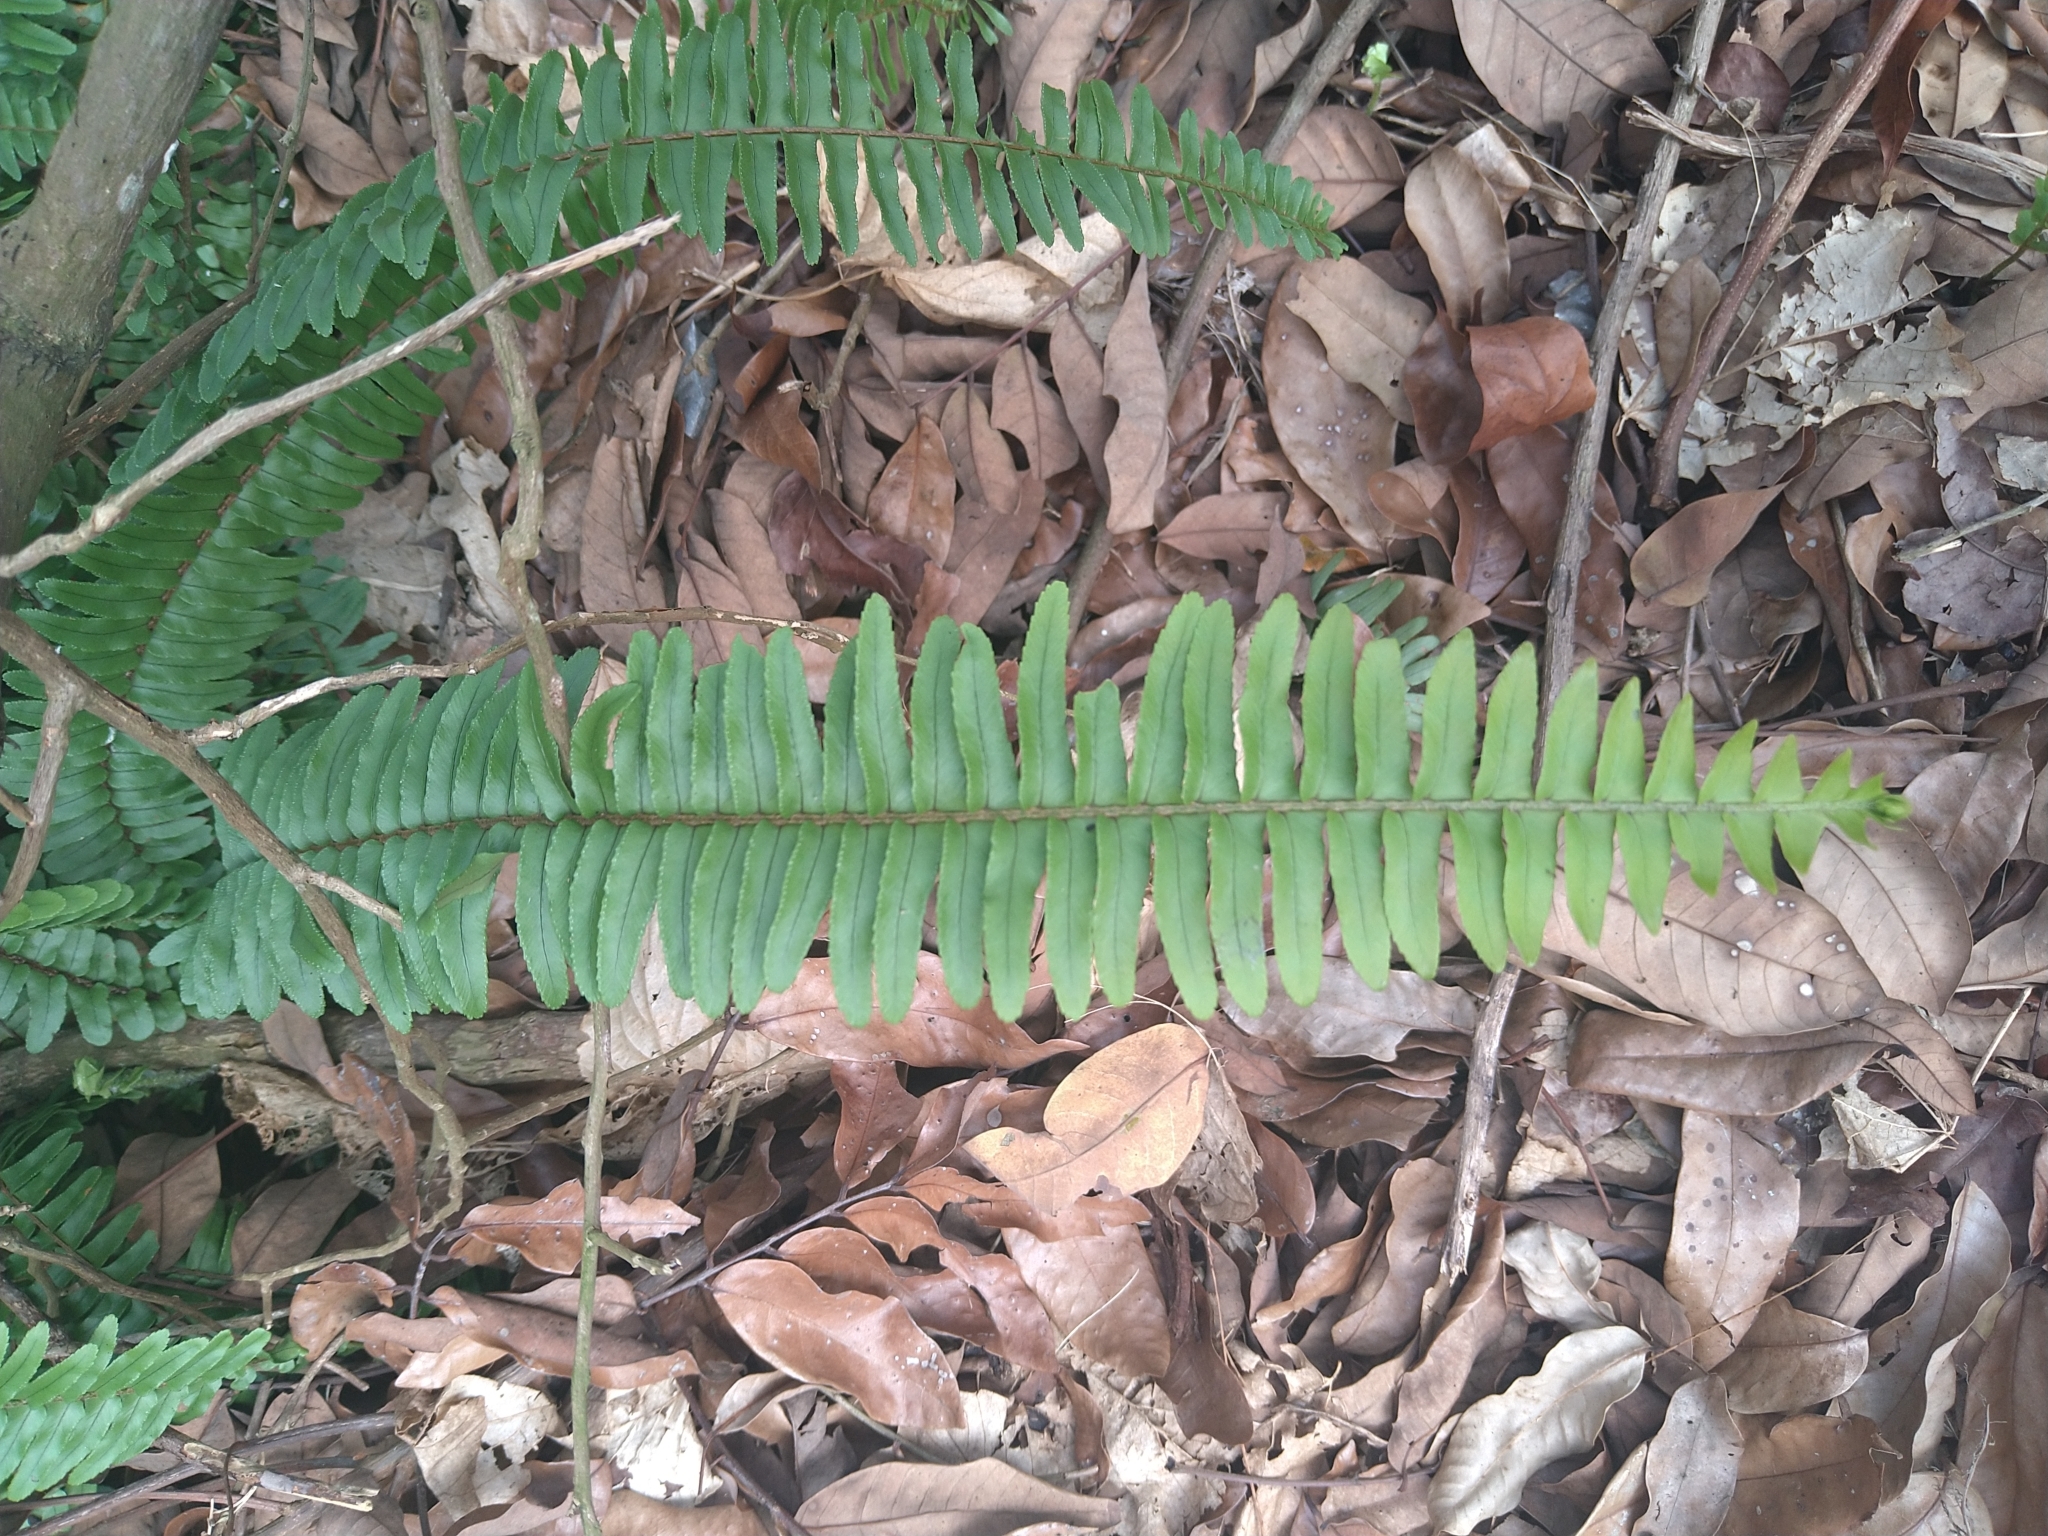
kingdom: Plantae
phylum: Tracheophyta
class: Polypodiopsida
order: Polypodiales
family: Nephrolepidaceae
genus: Nephrolepis
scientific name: Nephrolepis cordifolia
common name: Narrow swordfern
